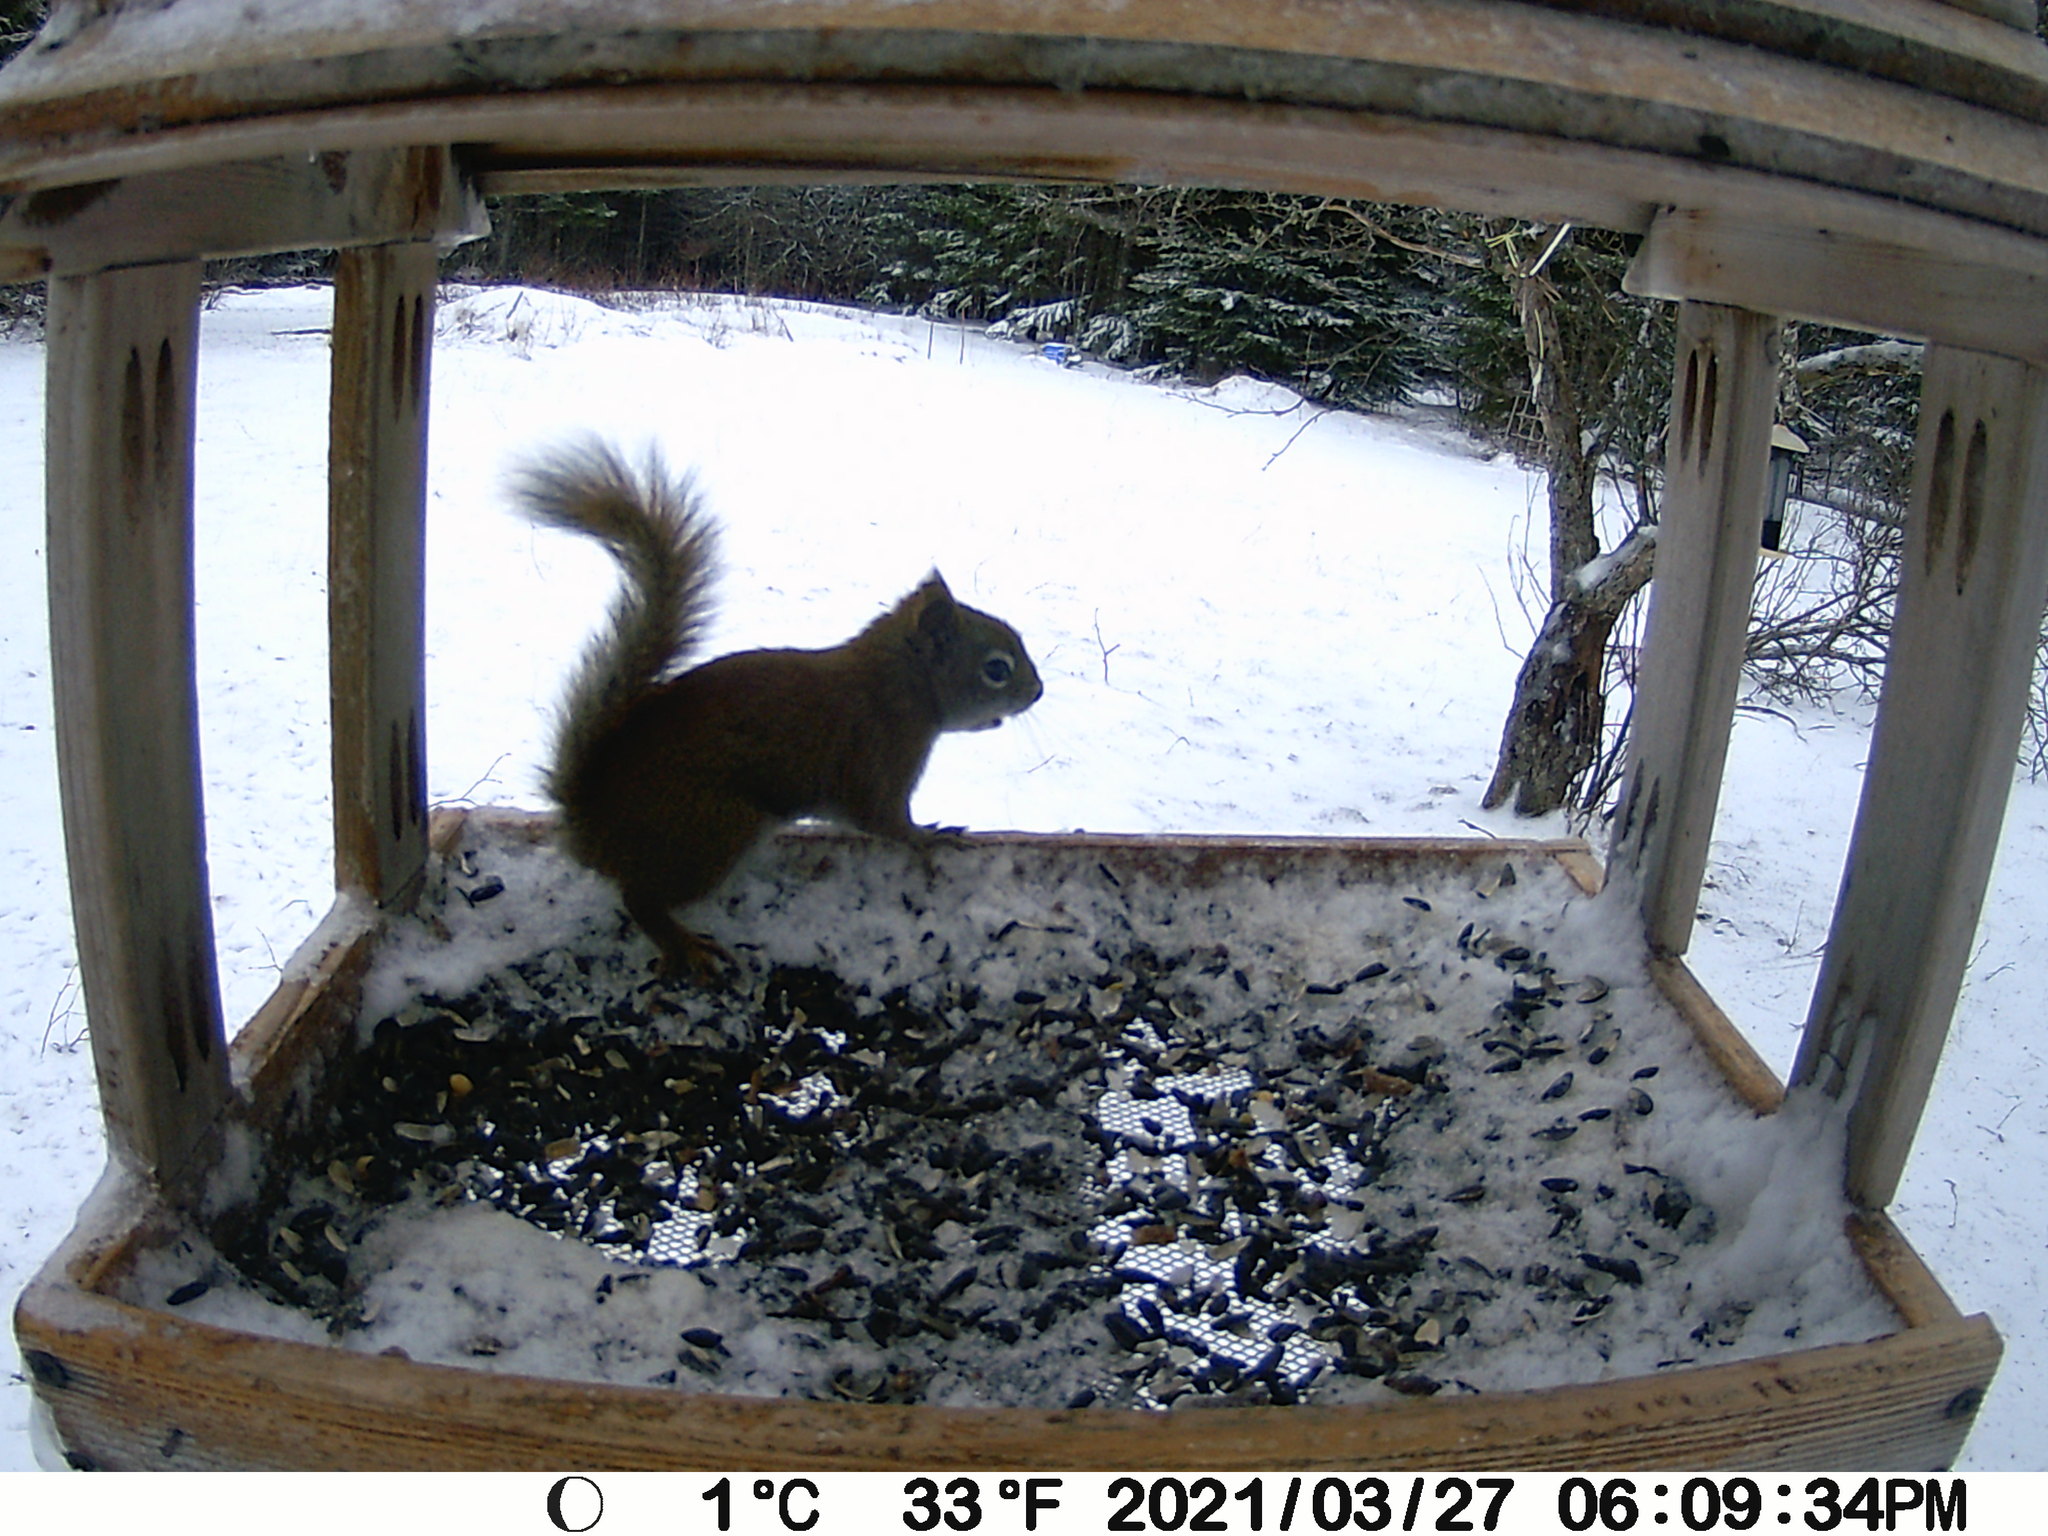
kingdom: Animalia
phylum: Chordata
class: Mammalia
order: Rodentia
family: Sciuridae
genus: Tamiasciurus
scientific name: Tamiasciurus hudsonicus
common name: Red squirrel
